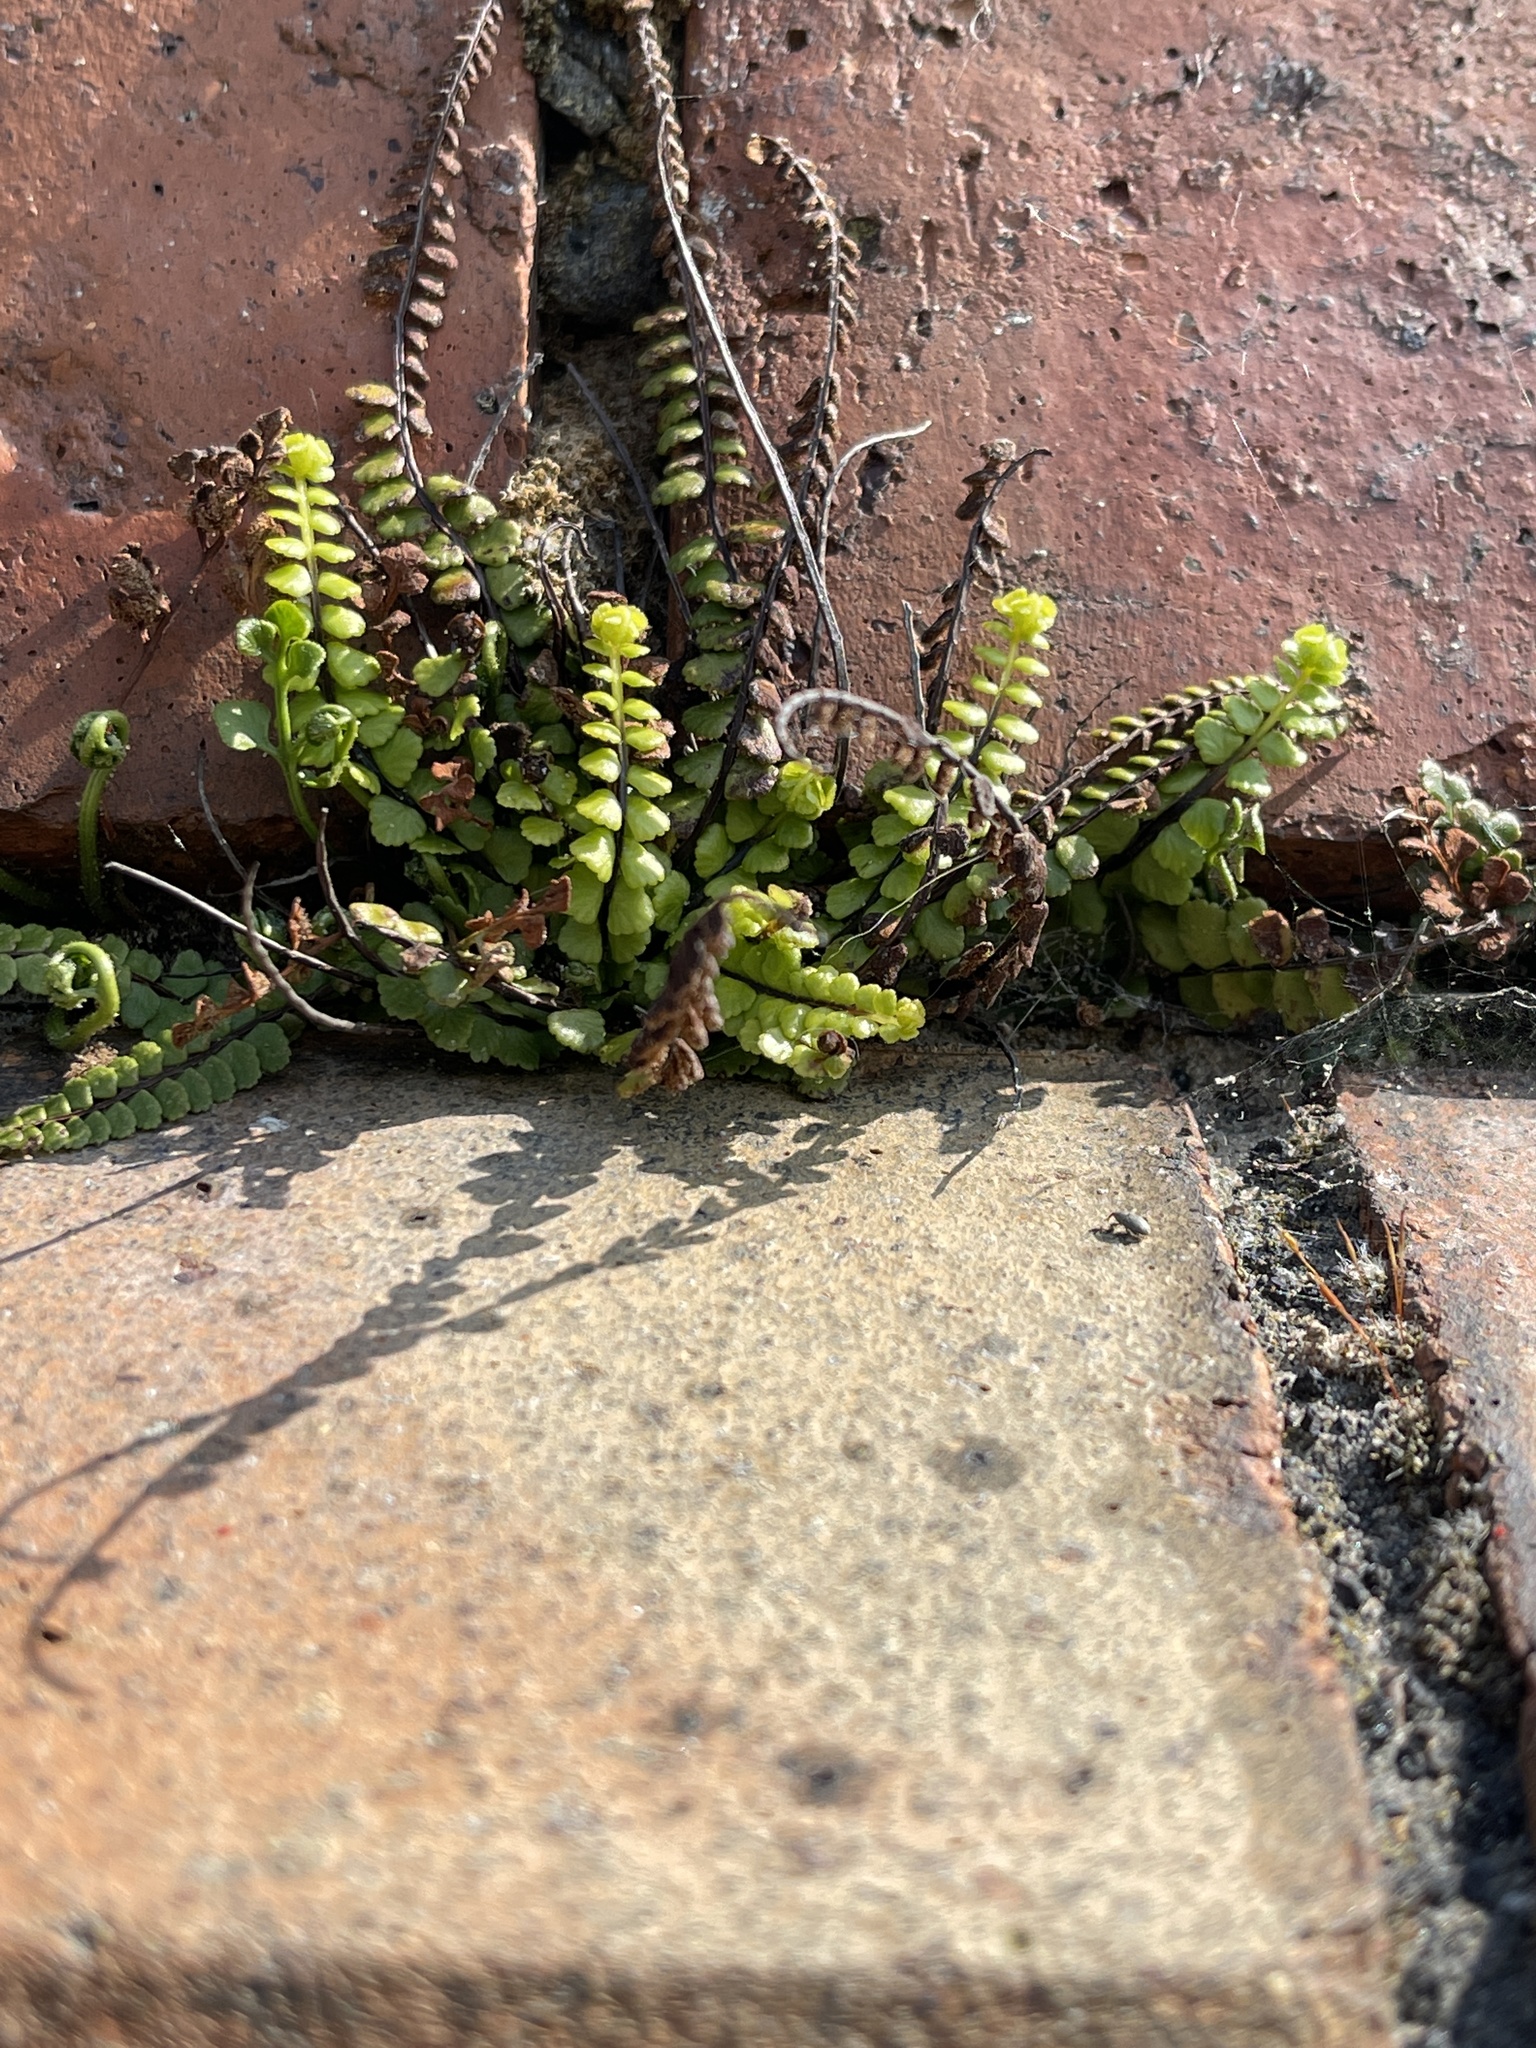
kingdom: Plantae
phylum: Tracheophyta
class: Polypodiopsida
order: Polypodiales
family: Aspleniaceae
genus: Asplenium
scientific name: Asplenium trichomanes
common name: Maidenhair spleenwort
